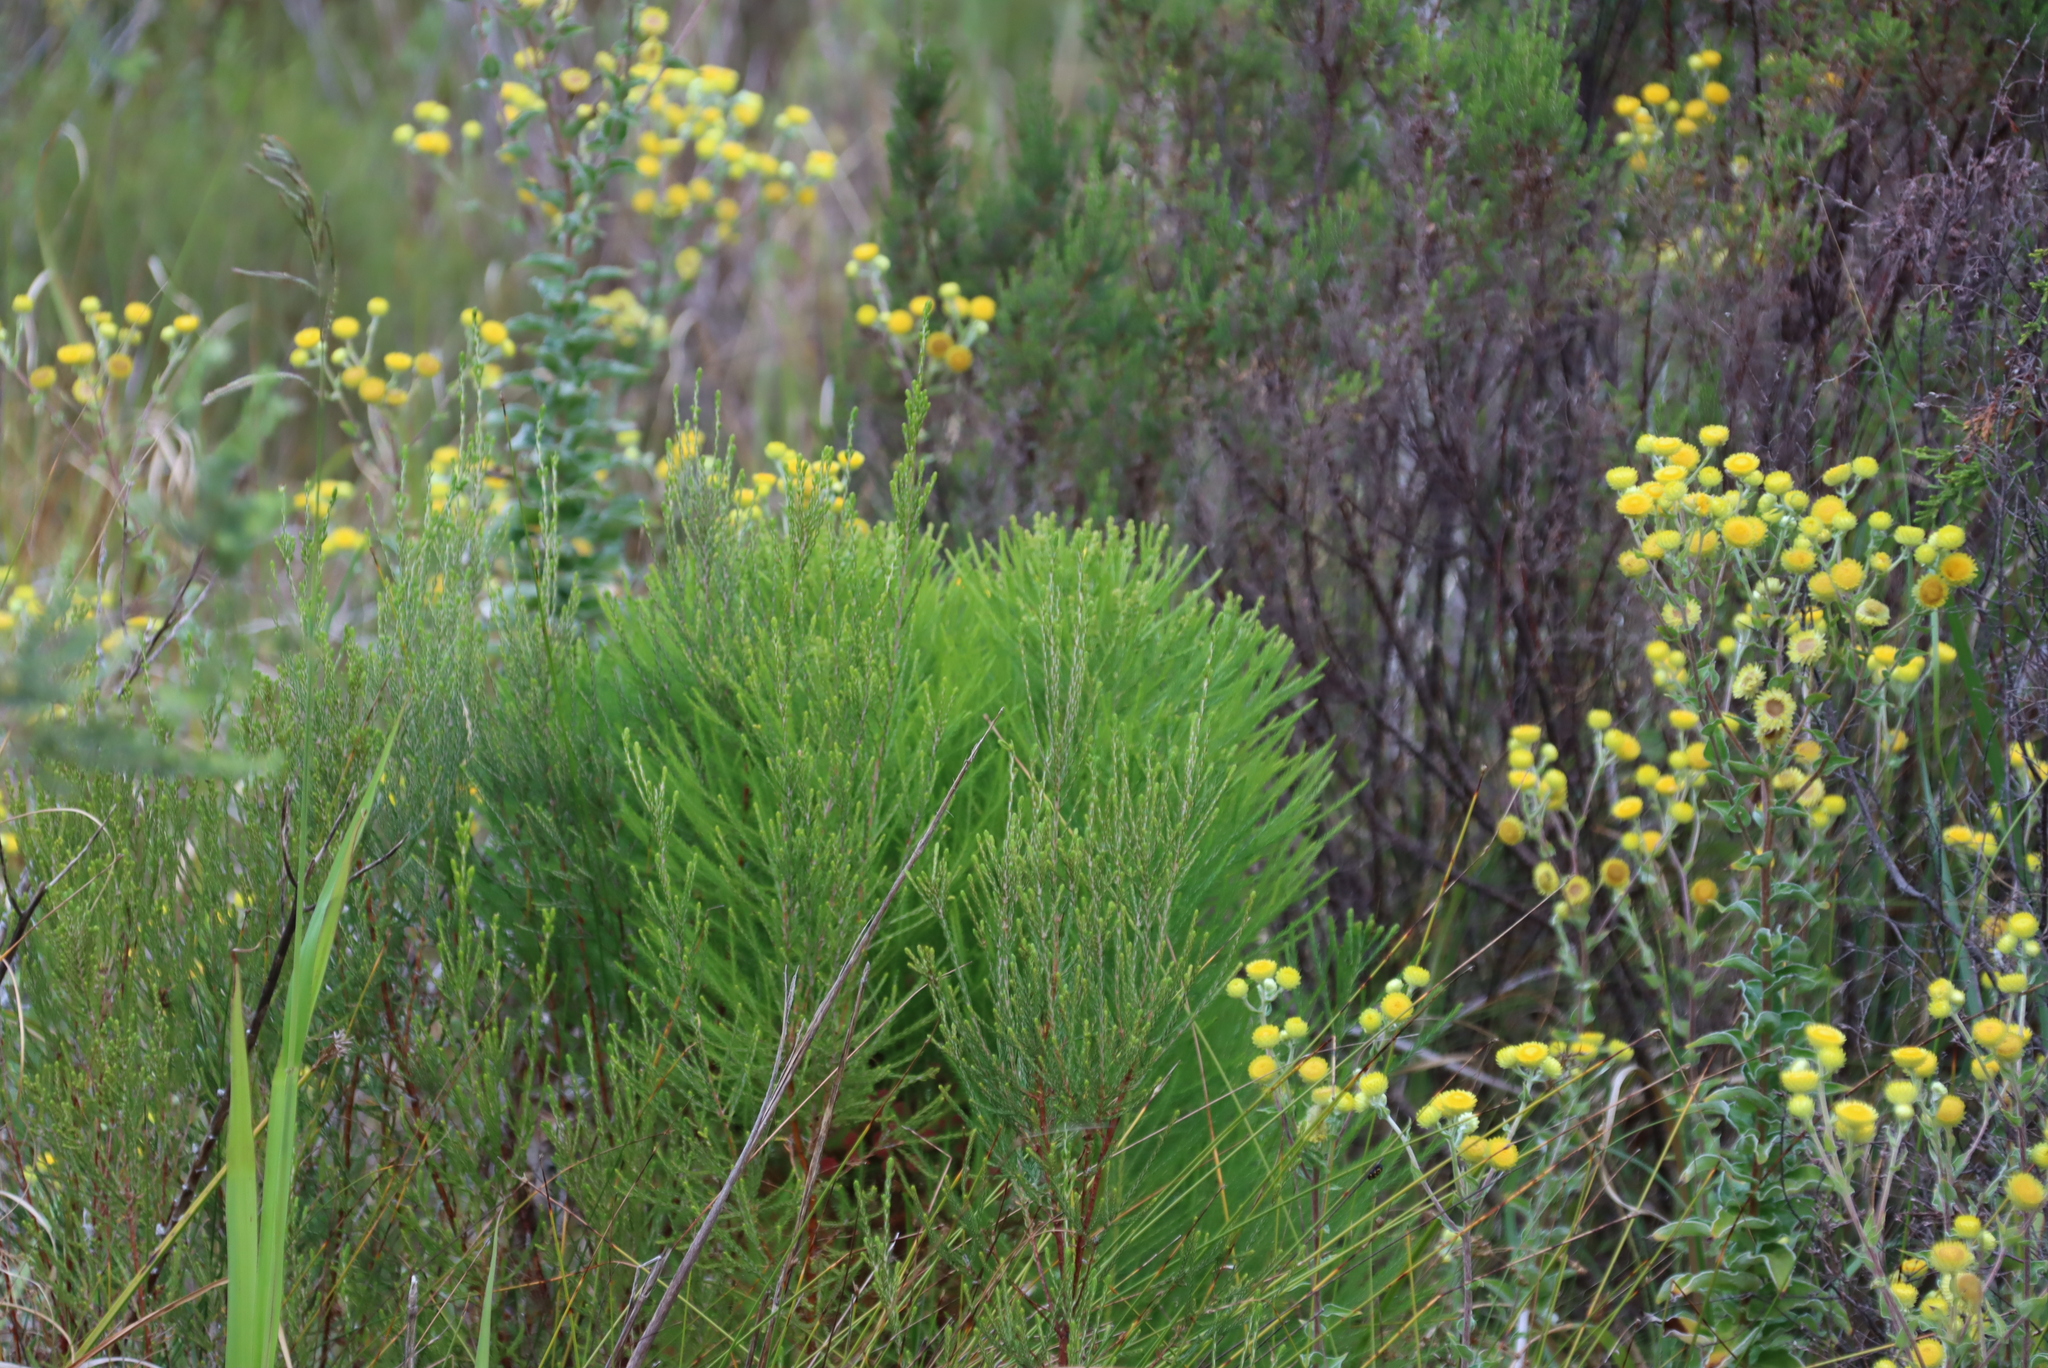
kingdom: Plantae
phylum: Tracheophyta
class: Magnoliopsida
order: Bruniales
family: Bruniaceae
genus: Berzelia
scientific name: Berzelia lanuginosa
